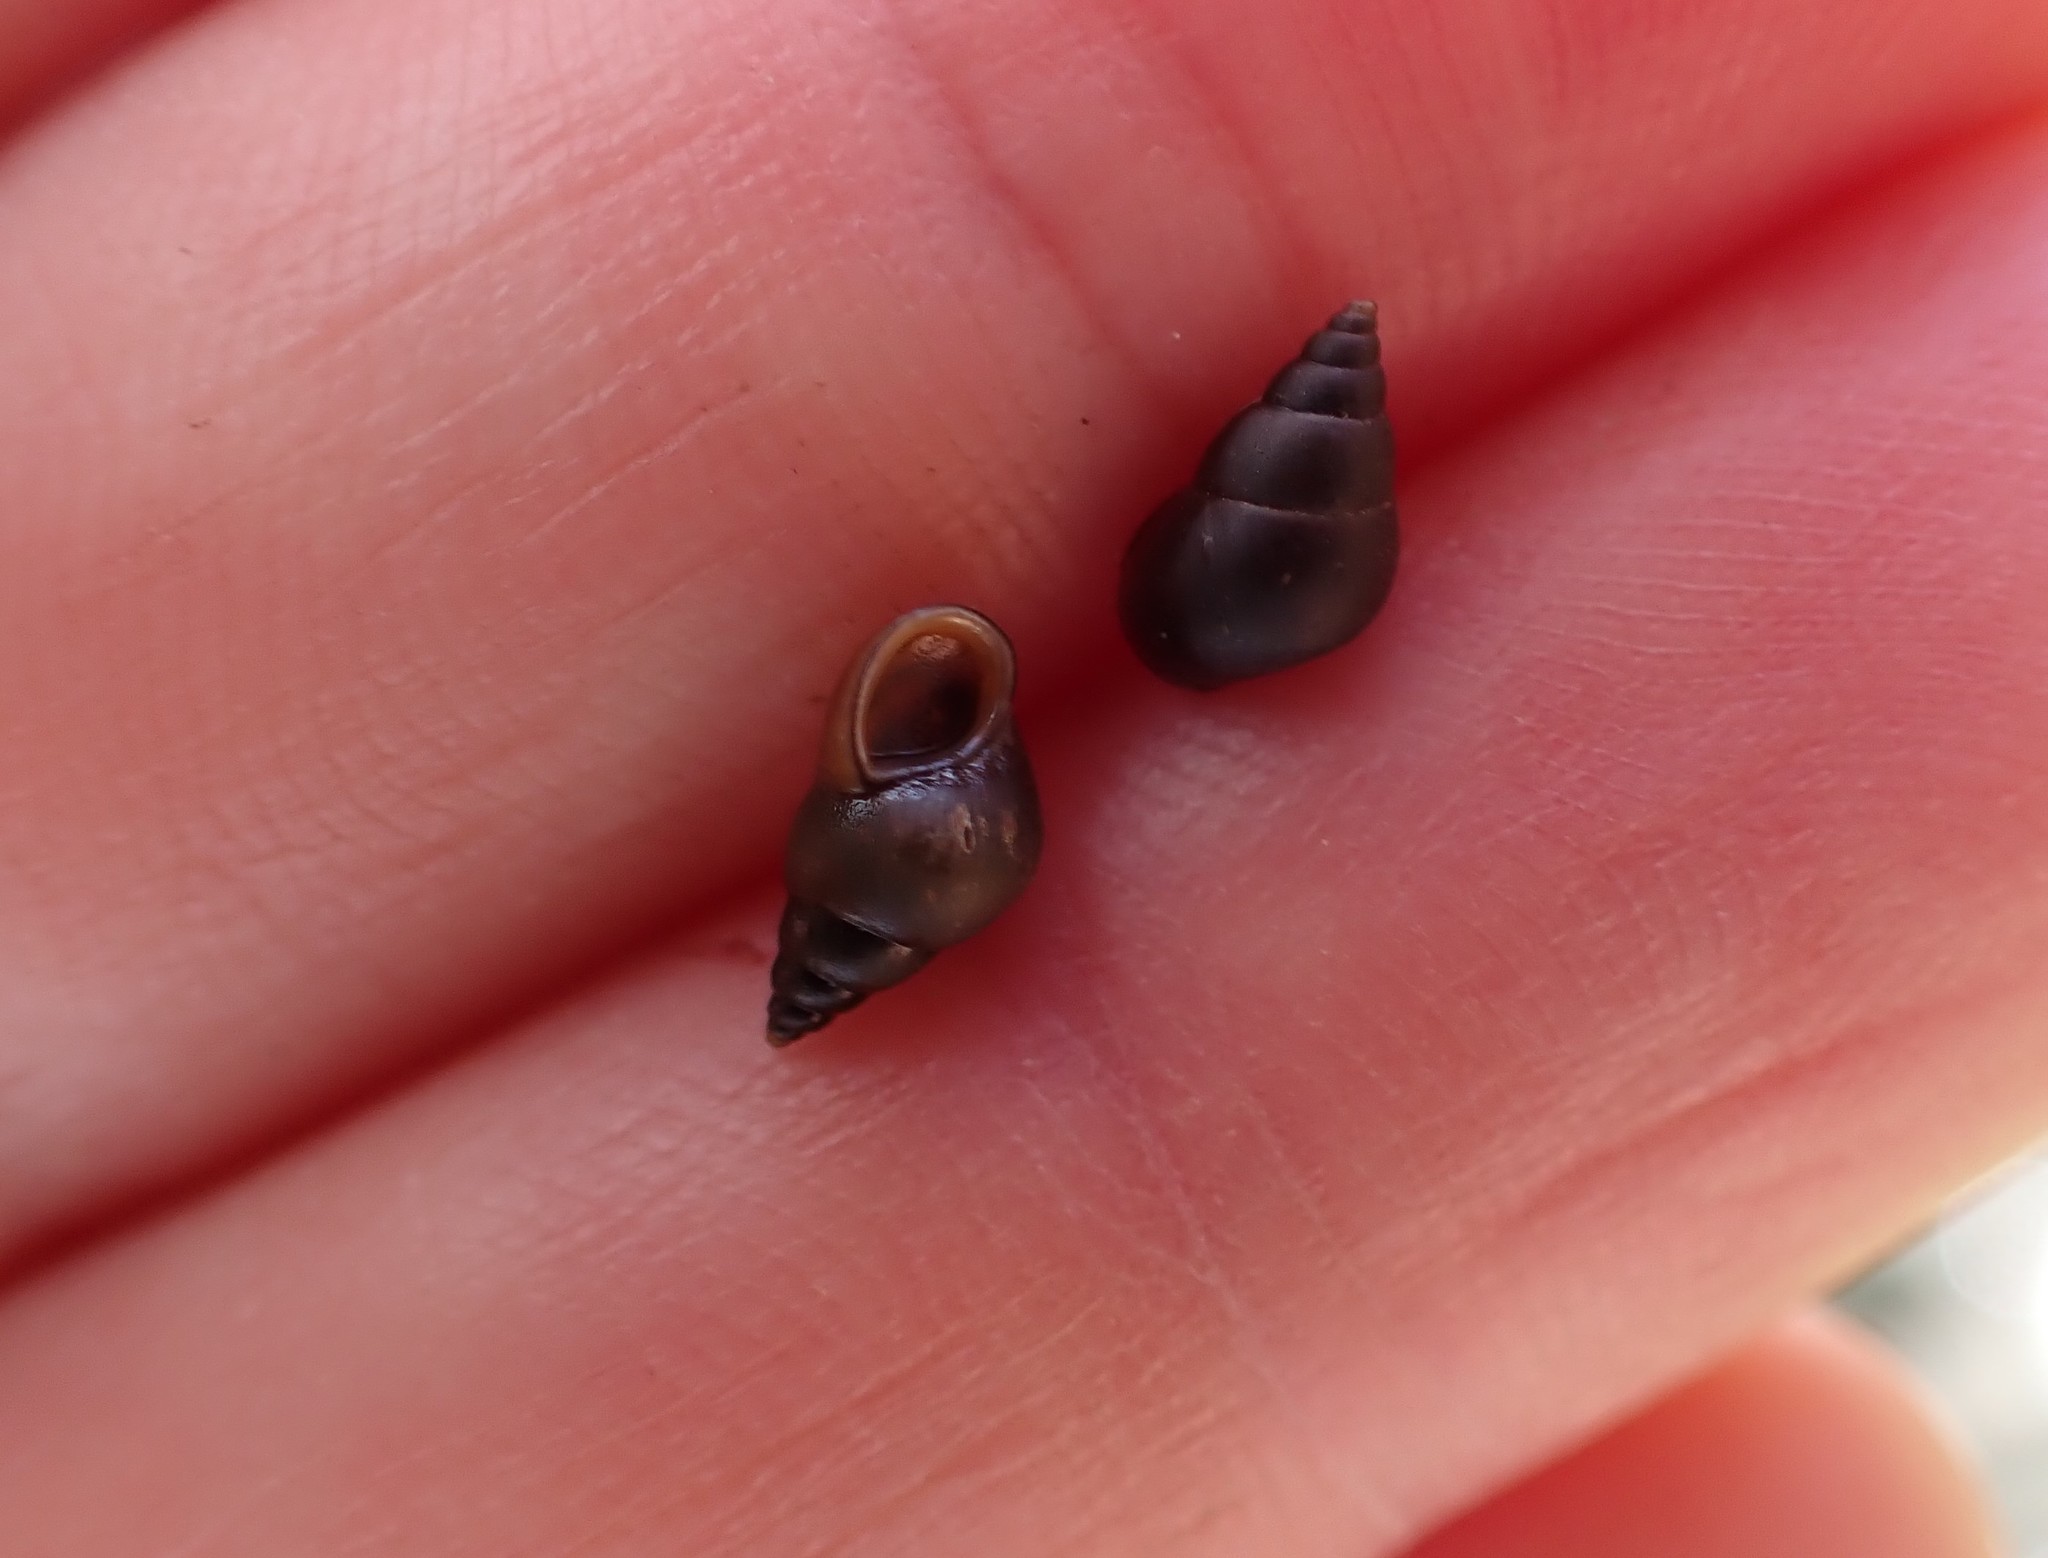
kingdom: Animalia
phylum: Mollusca
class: Gastropoda
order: Littorinimorpha
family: Tateidae
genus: Potamopyrgus
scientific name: Potamopyrgus antipodarum
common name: Jenkins' spire snail
